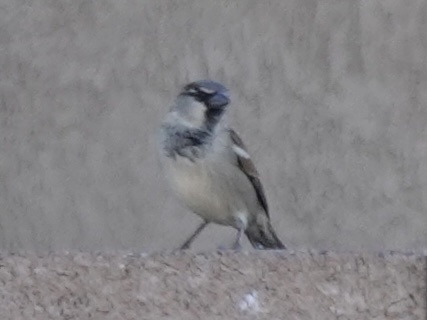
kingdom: Animalia
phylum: Chordata
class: Aves
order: Passeriformes
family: Passeridae
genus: Passer
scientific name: Passer domesticus
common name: House sparrow
